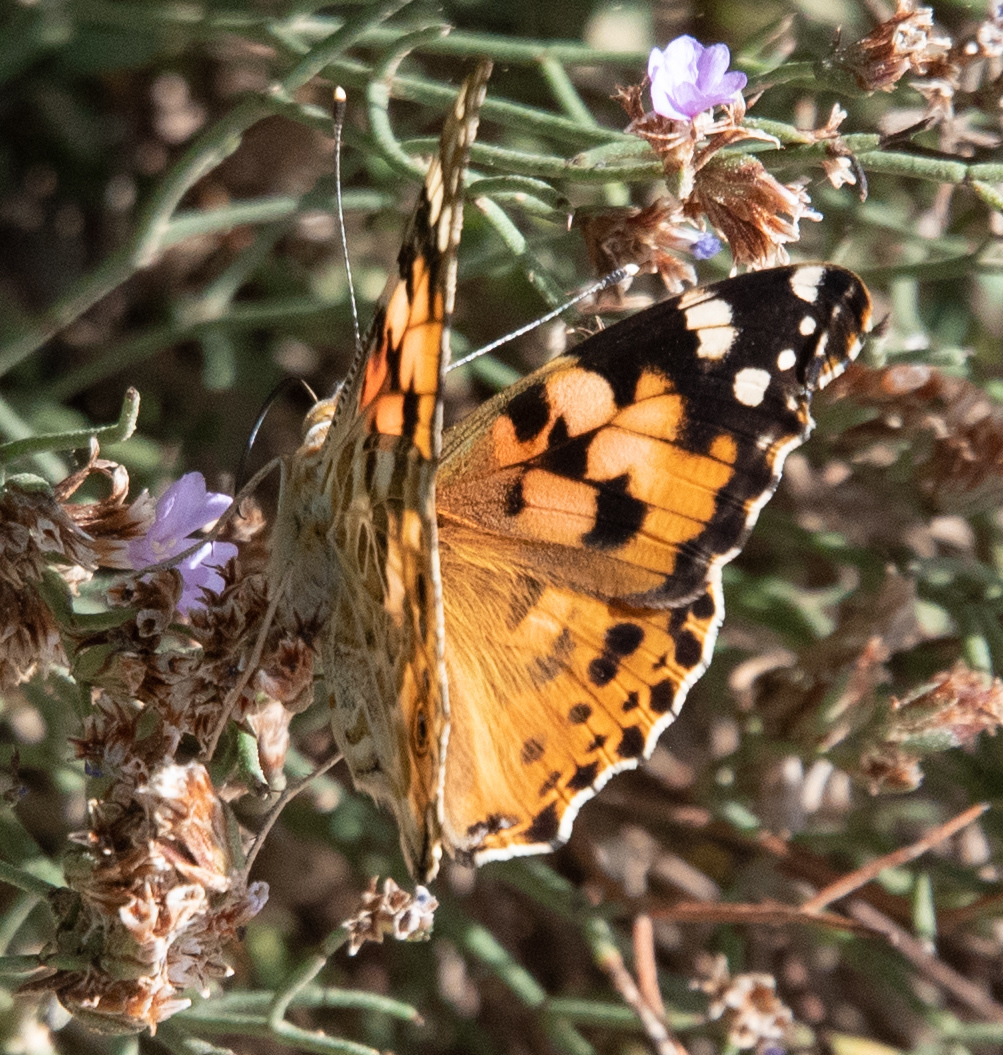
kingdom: Animalia
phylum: Arthropoda
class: Insecta
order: Lepidoptera
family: Nymphalidae
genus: Vanessa
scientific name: Vanessa cardui
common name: Painted lady
